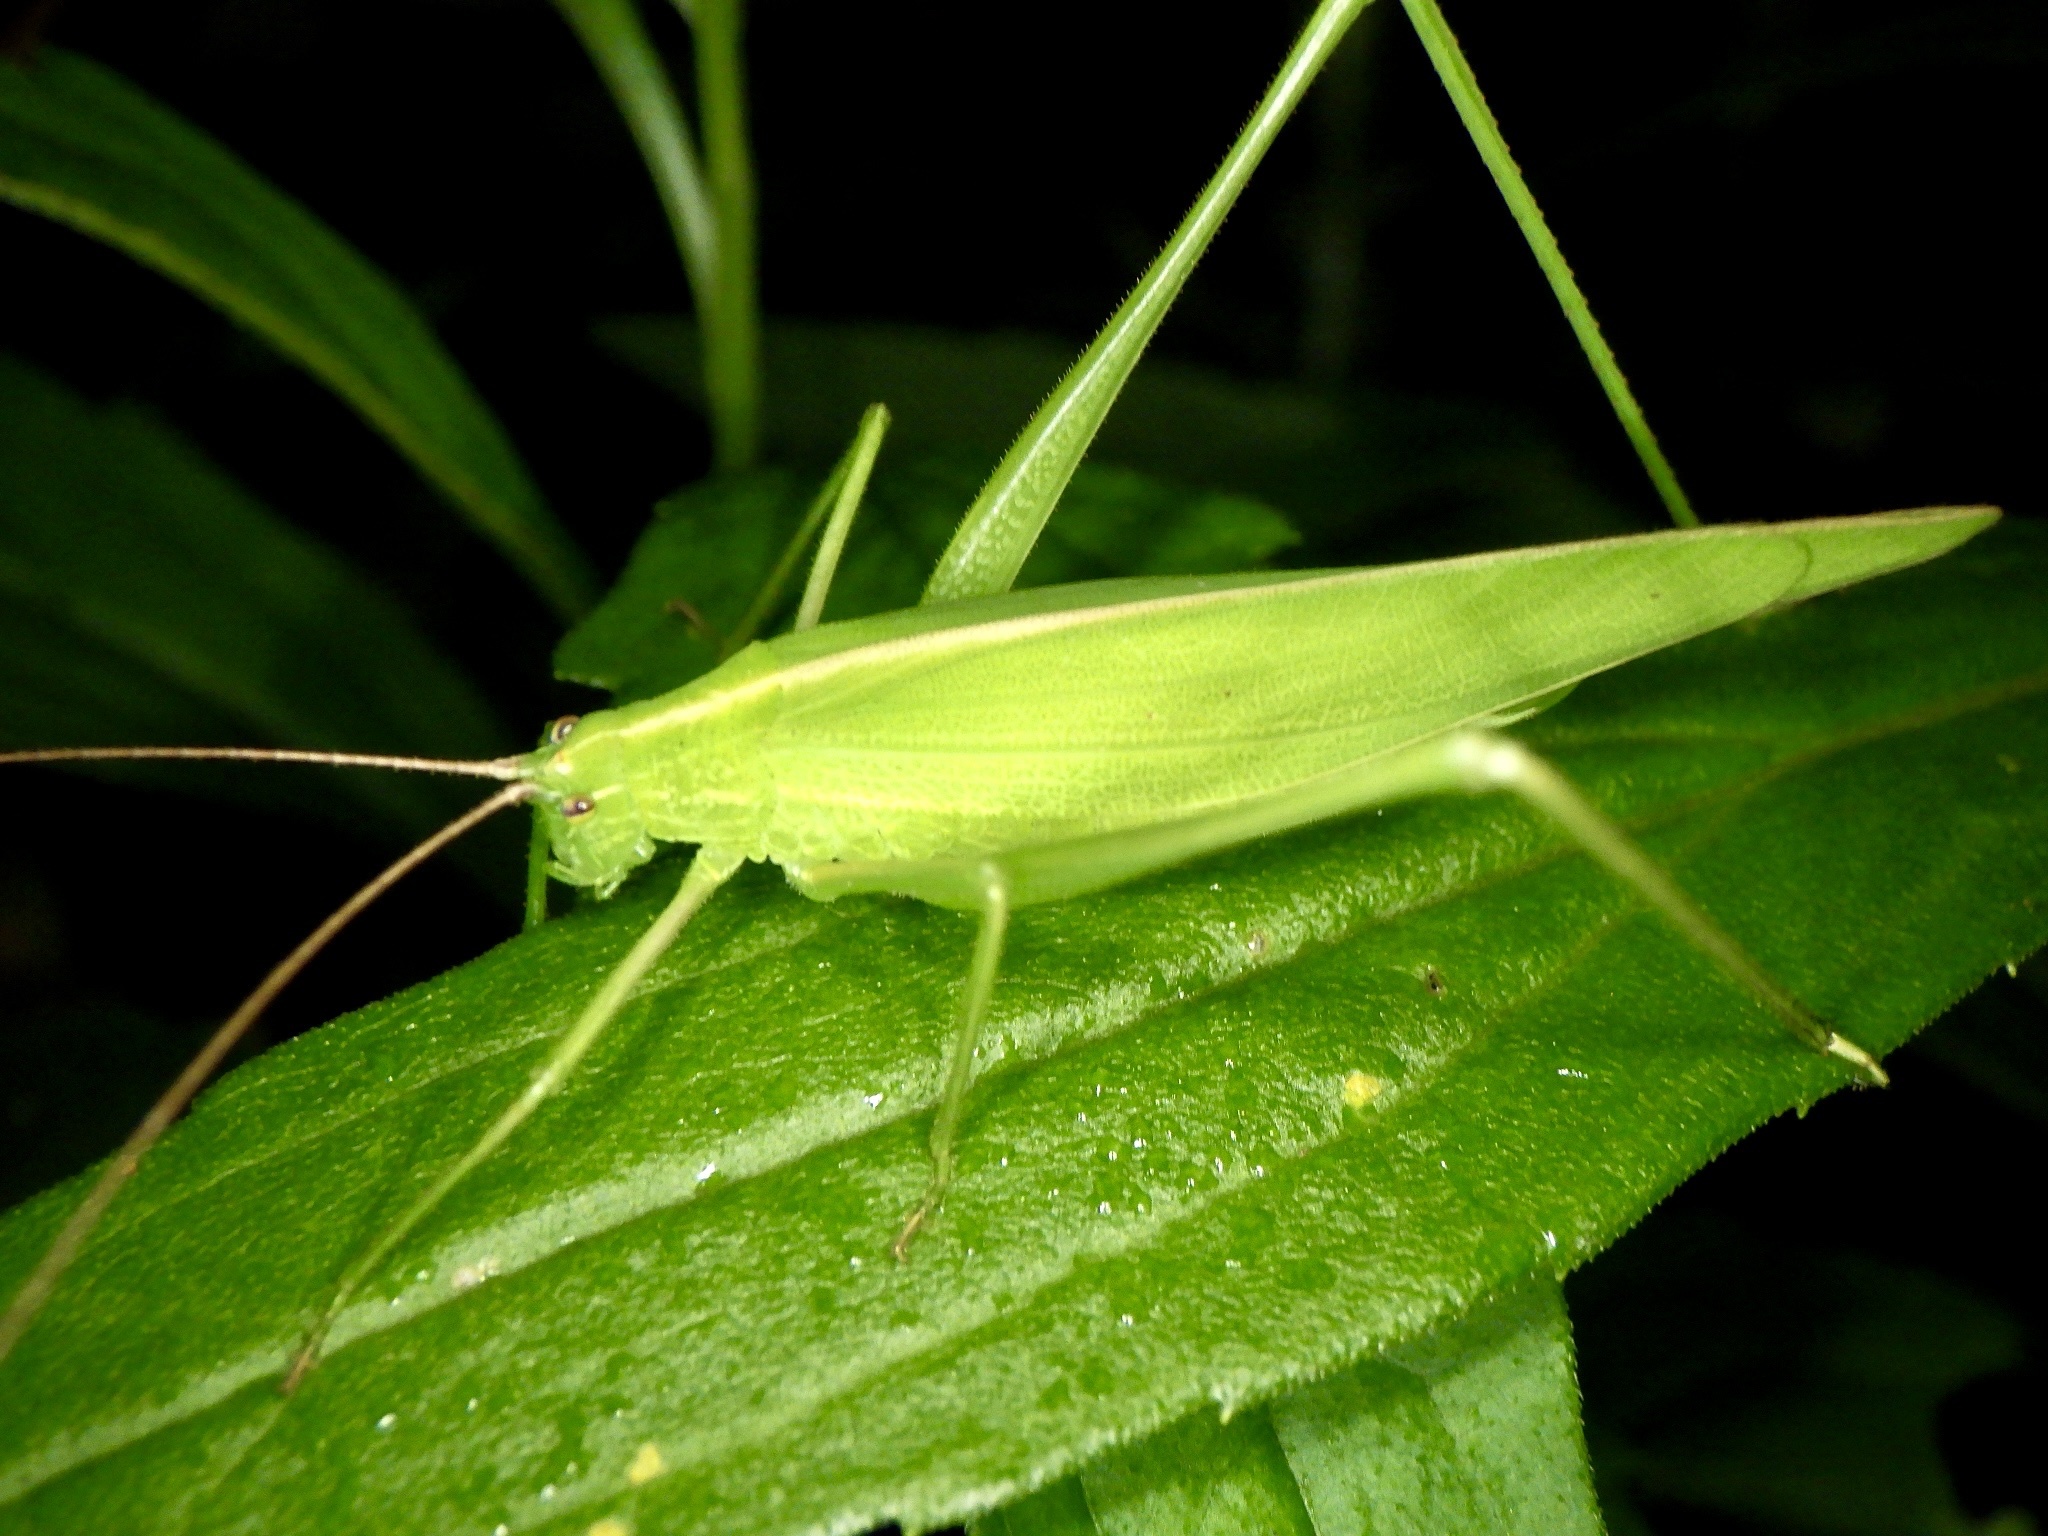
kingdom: Animalia
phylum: Arthropoda
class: Insecta
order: Orthoptera
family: Tettigoniidae
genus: Ducetia
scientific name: Ducetia japonica
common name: Pacific ducetia
